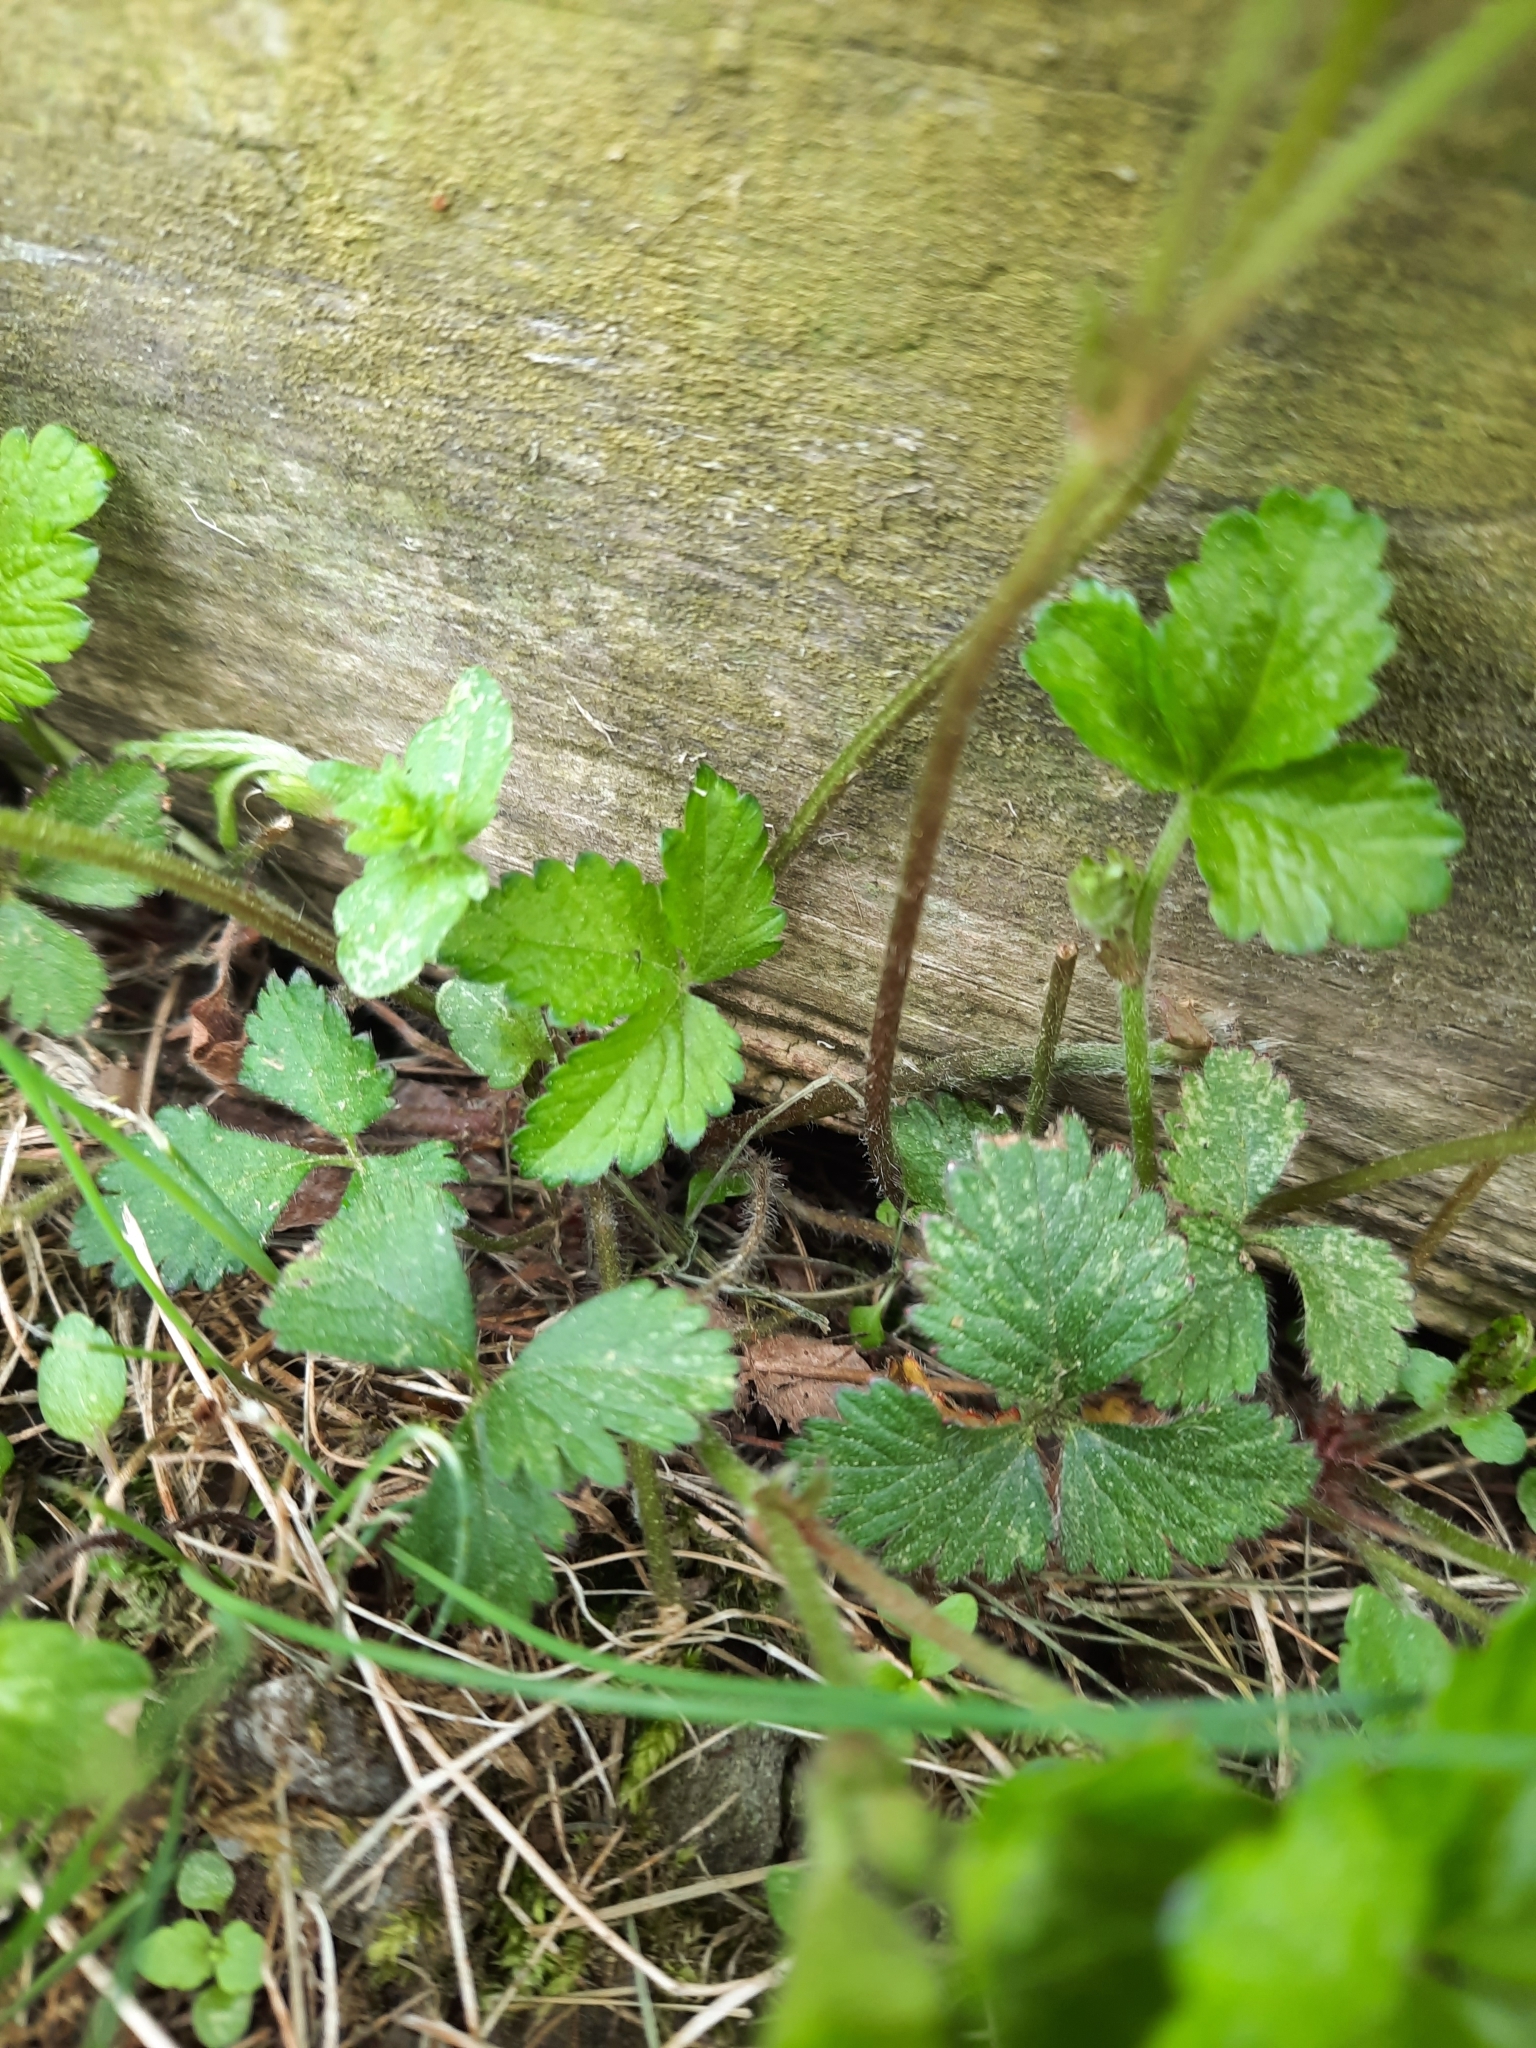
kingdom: Plantae
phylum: Tracheophyta
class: Magnoliopsida
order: Rosales
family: Rosaceae
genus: Potentilla
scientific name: Potentilla indica
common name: Yellow-flowered strawberry
